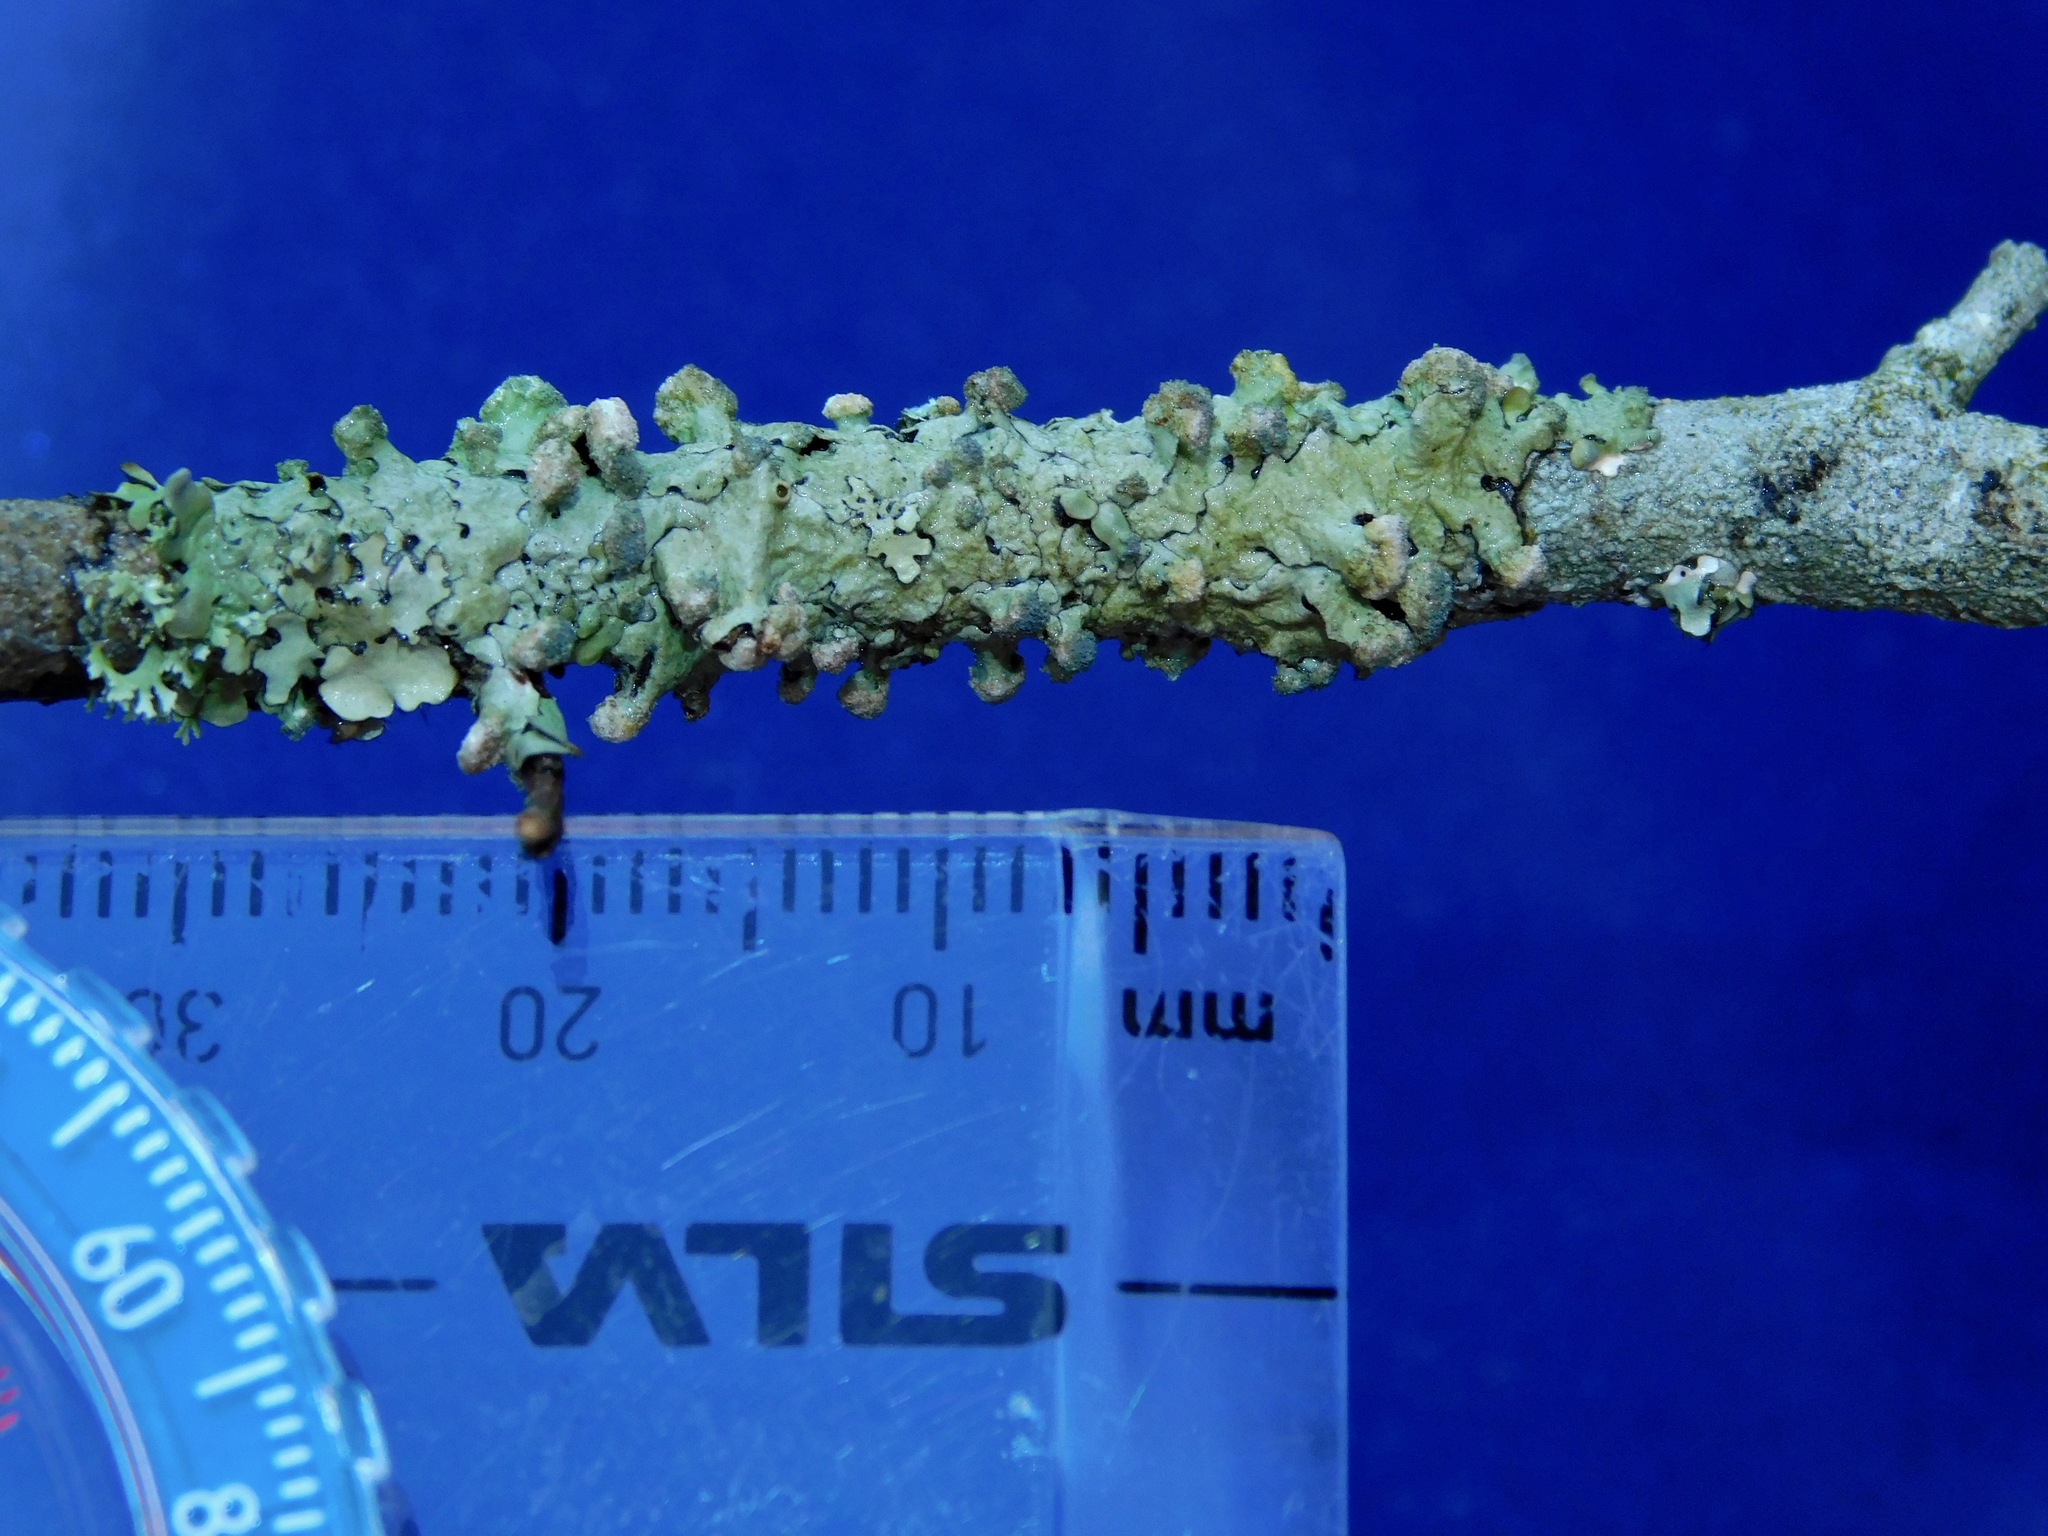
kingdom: Fungi
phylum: Ascomycota
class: Lecanoromycetes
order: Lecanorales
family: Parmeliaceae
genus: Myelochroa
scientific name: Myelochroa metarevoluta
